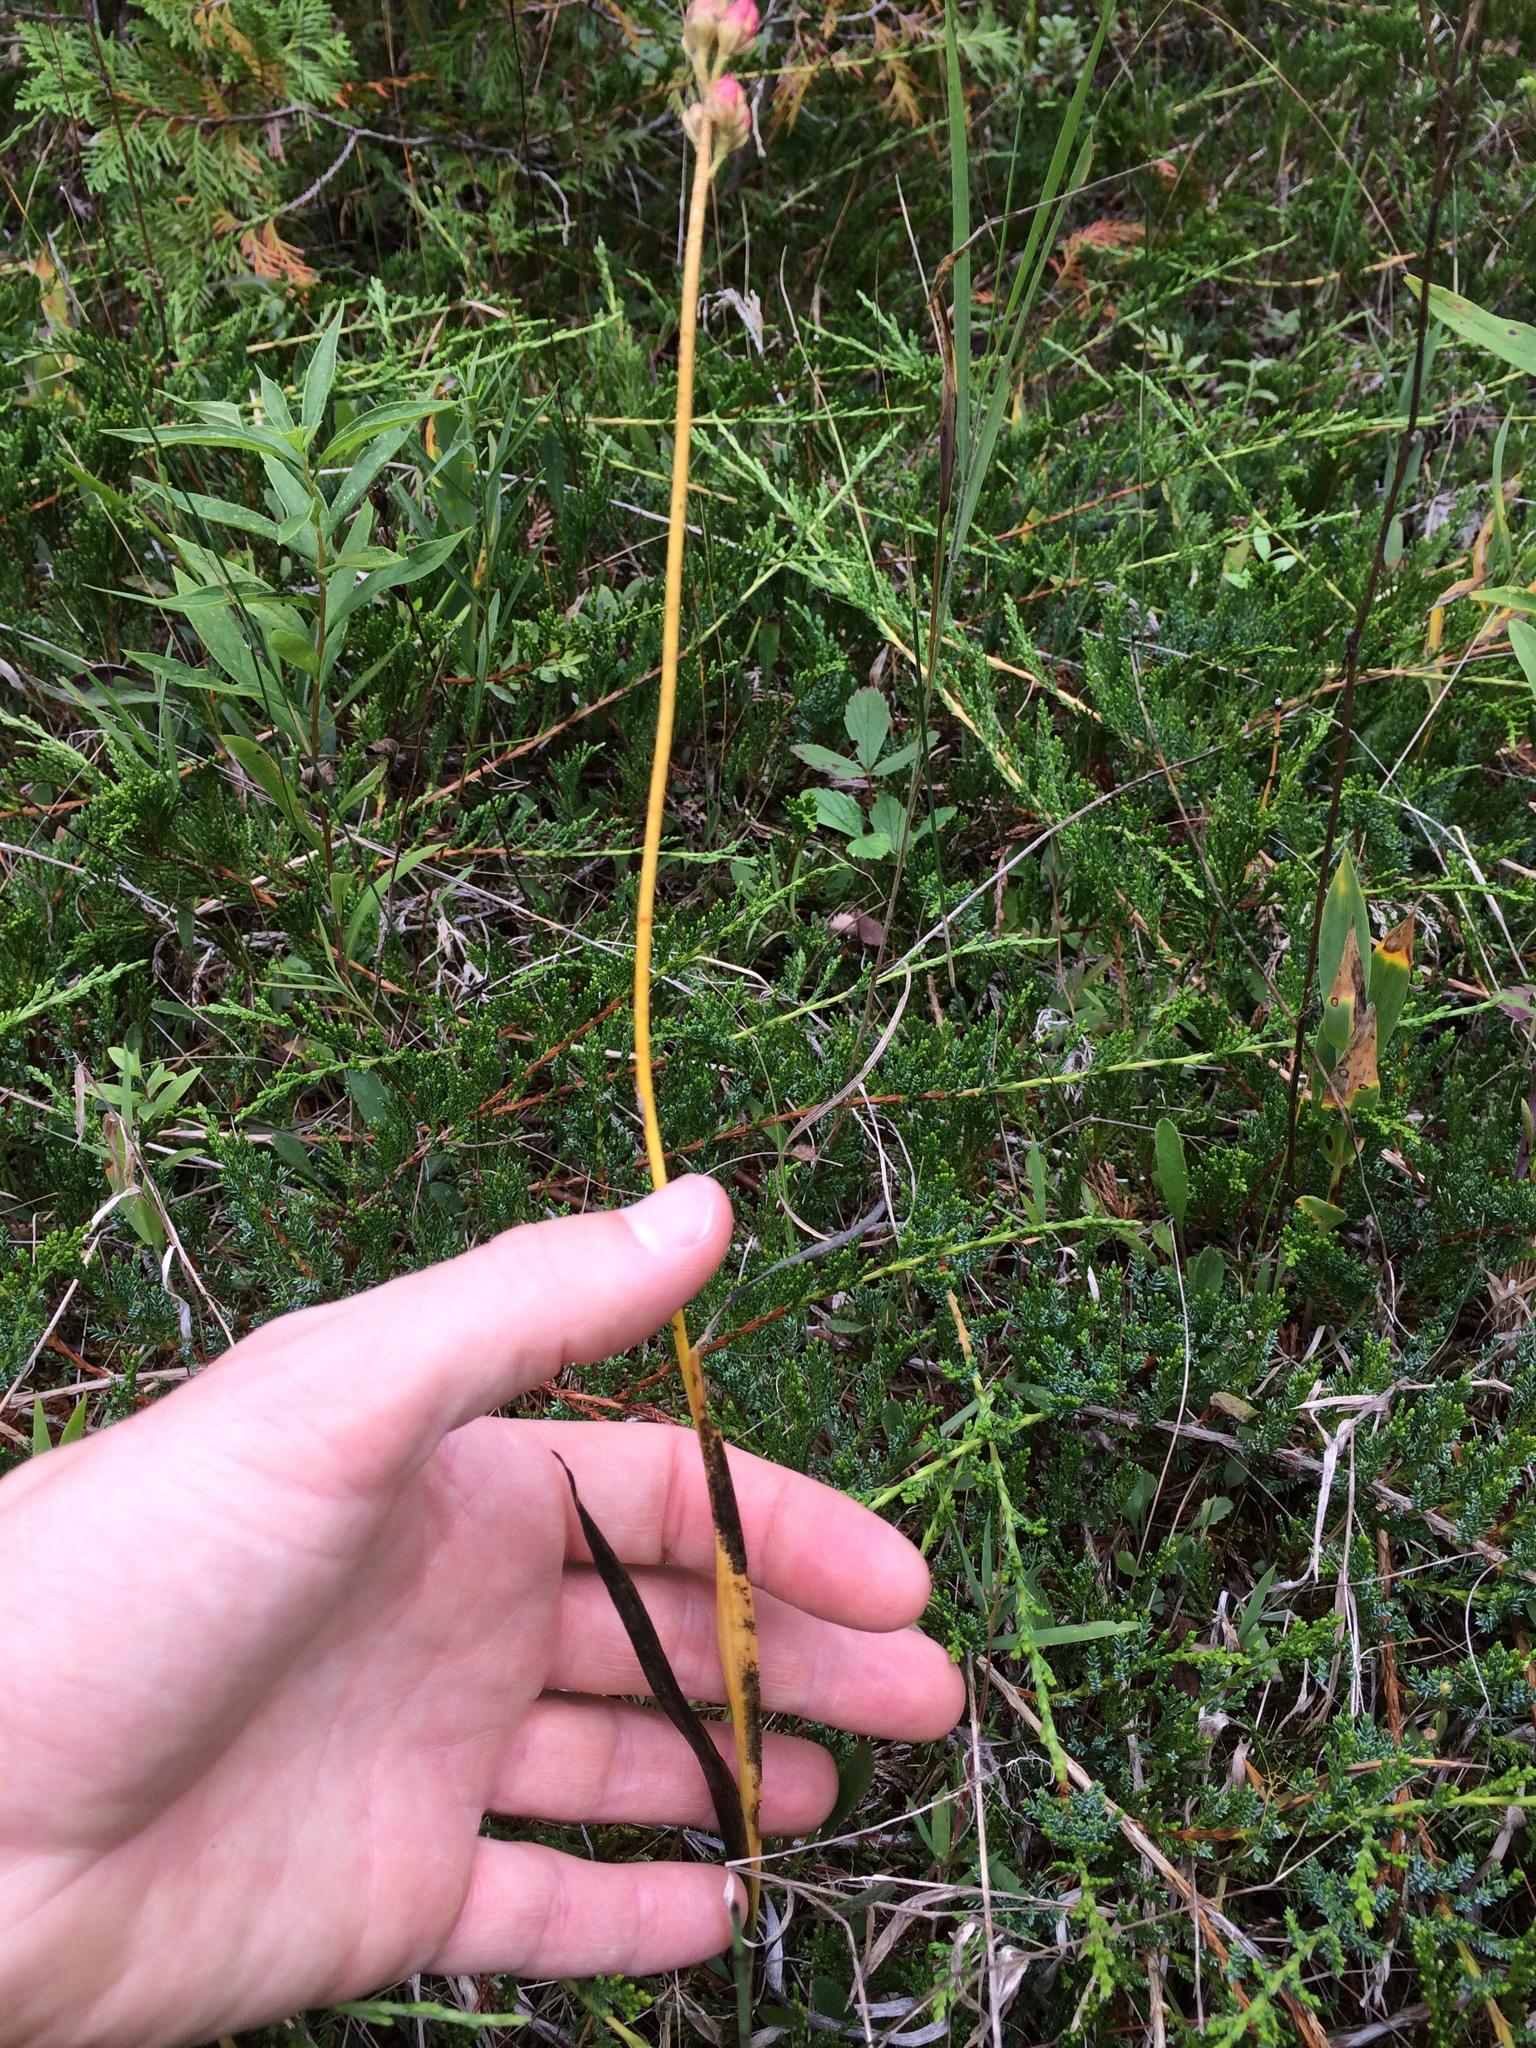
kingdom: Plantae
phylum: Tracheophyta
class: Liliopsida
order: Alismatales
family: Tofieldiaceae
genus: Triantha
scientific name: Triantha glutinosa
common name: Glutinous tofieldia
